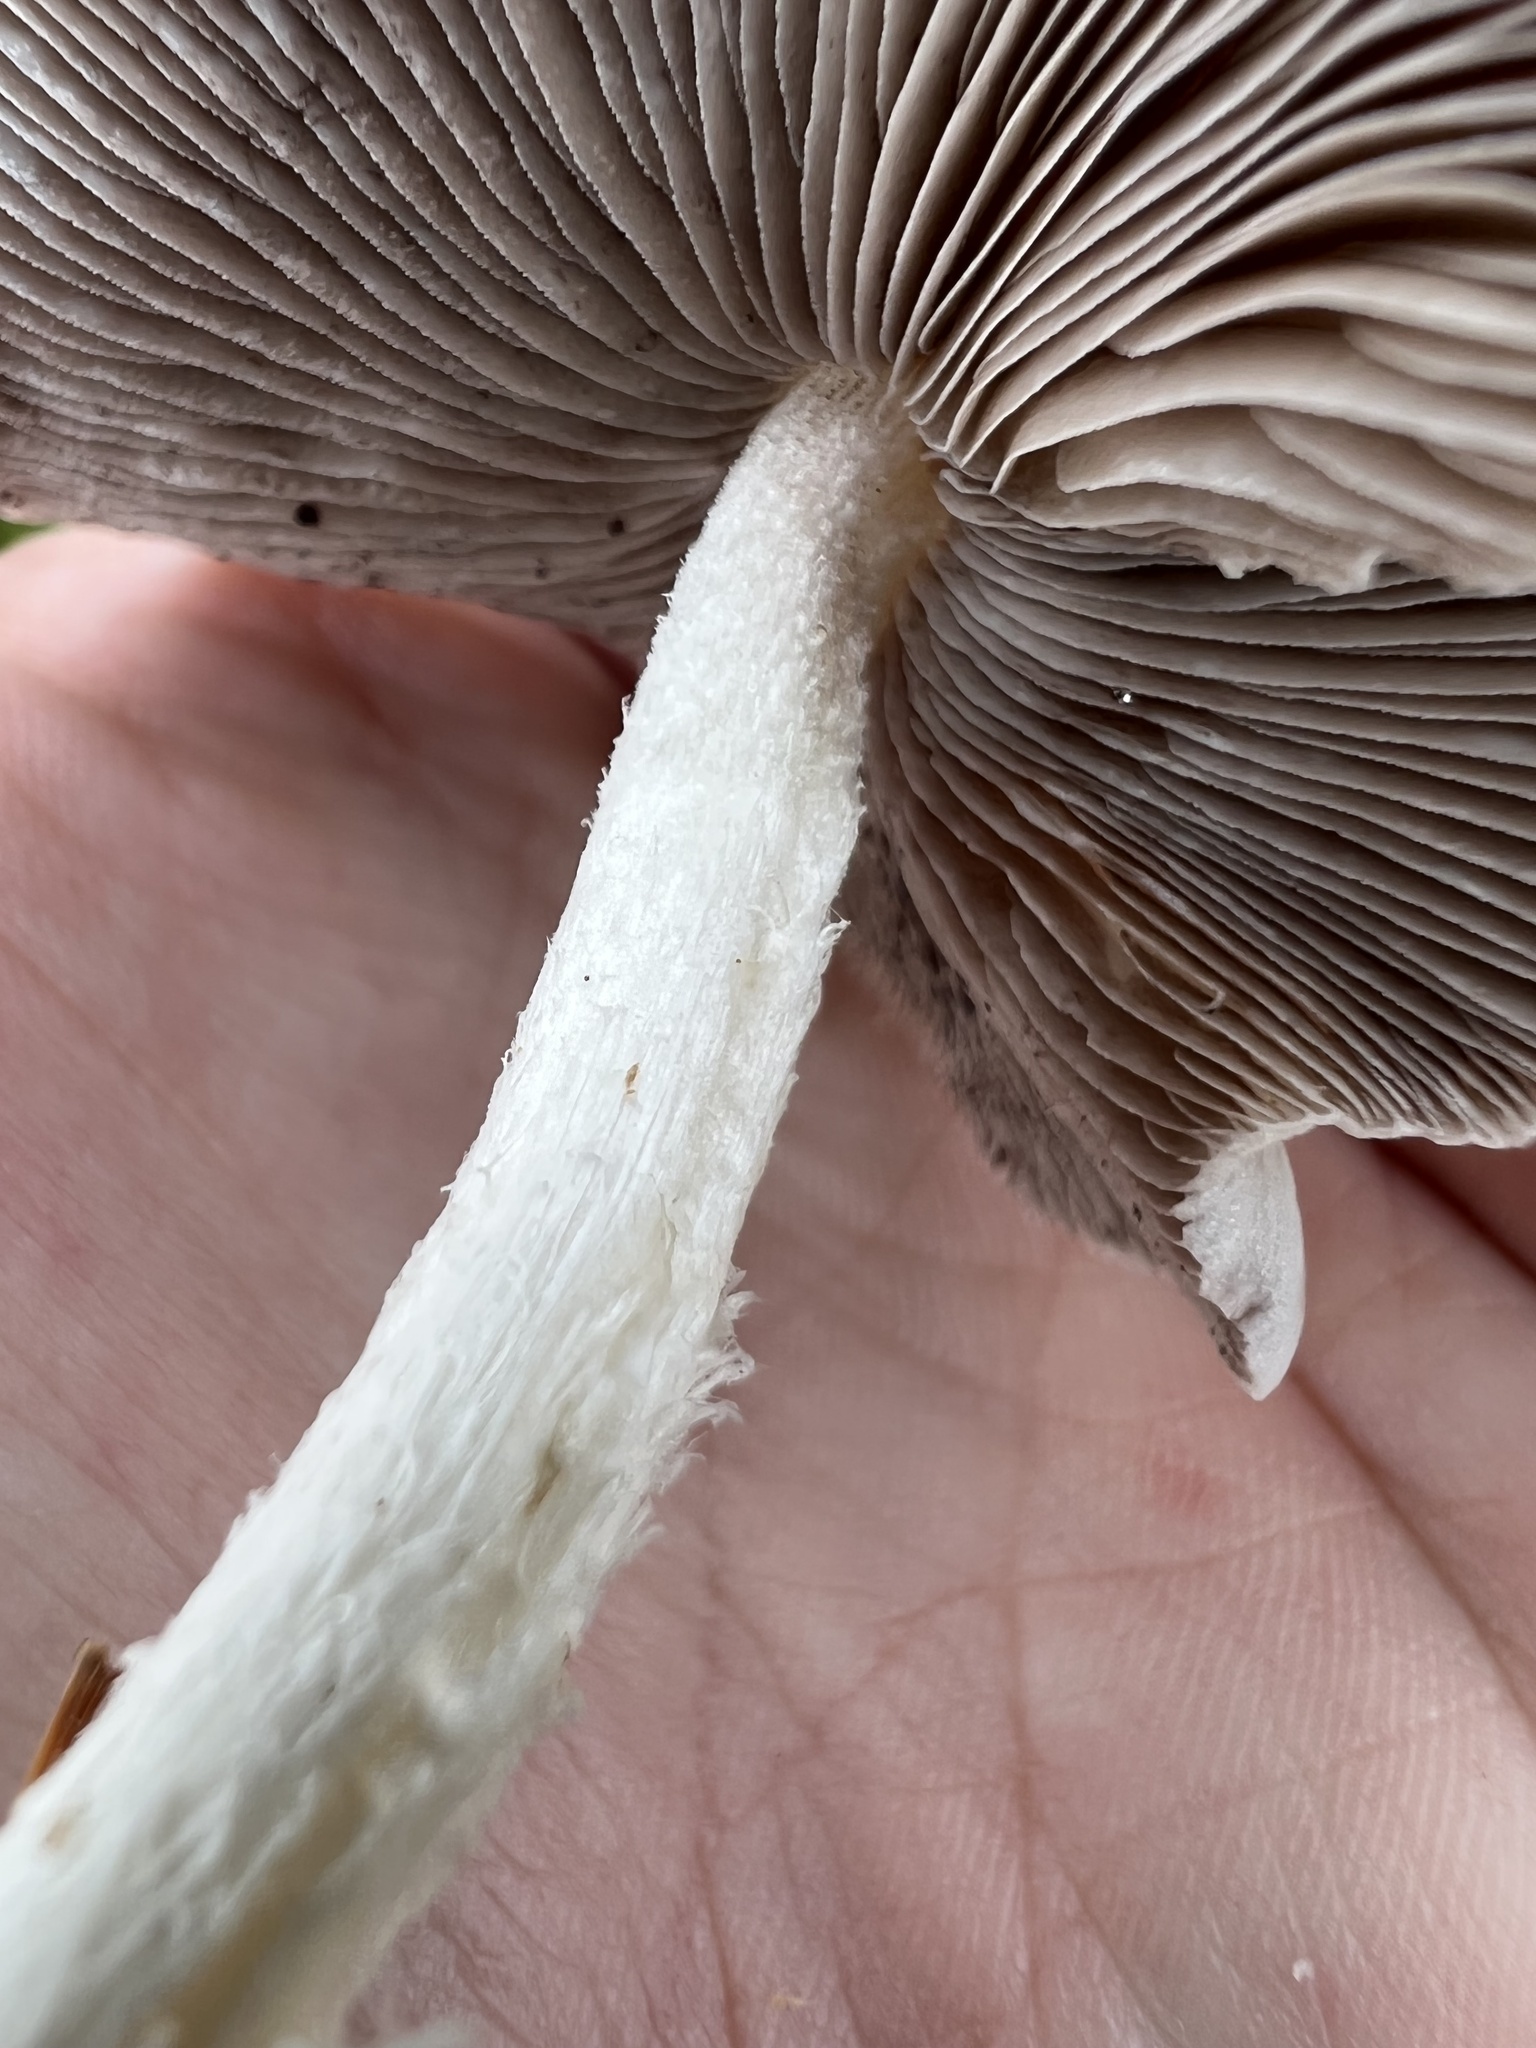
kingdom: Fungi
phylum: Basidiomycota
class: Agaricomycetes
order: Agaricales
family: Psathyrellaceae
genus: Candolleomyces
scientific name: Candolleomyces candolleanus
